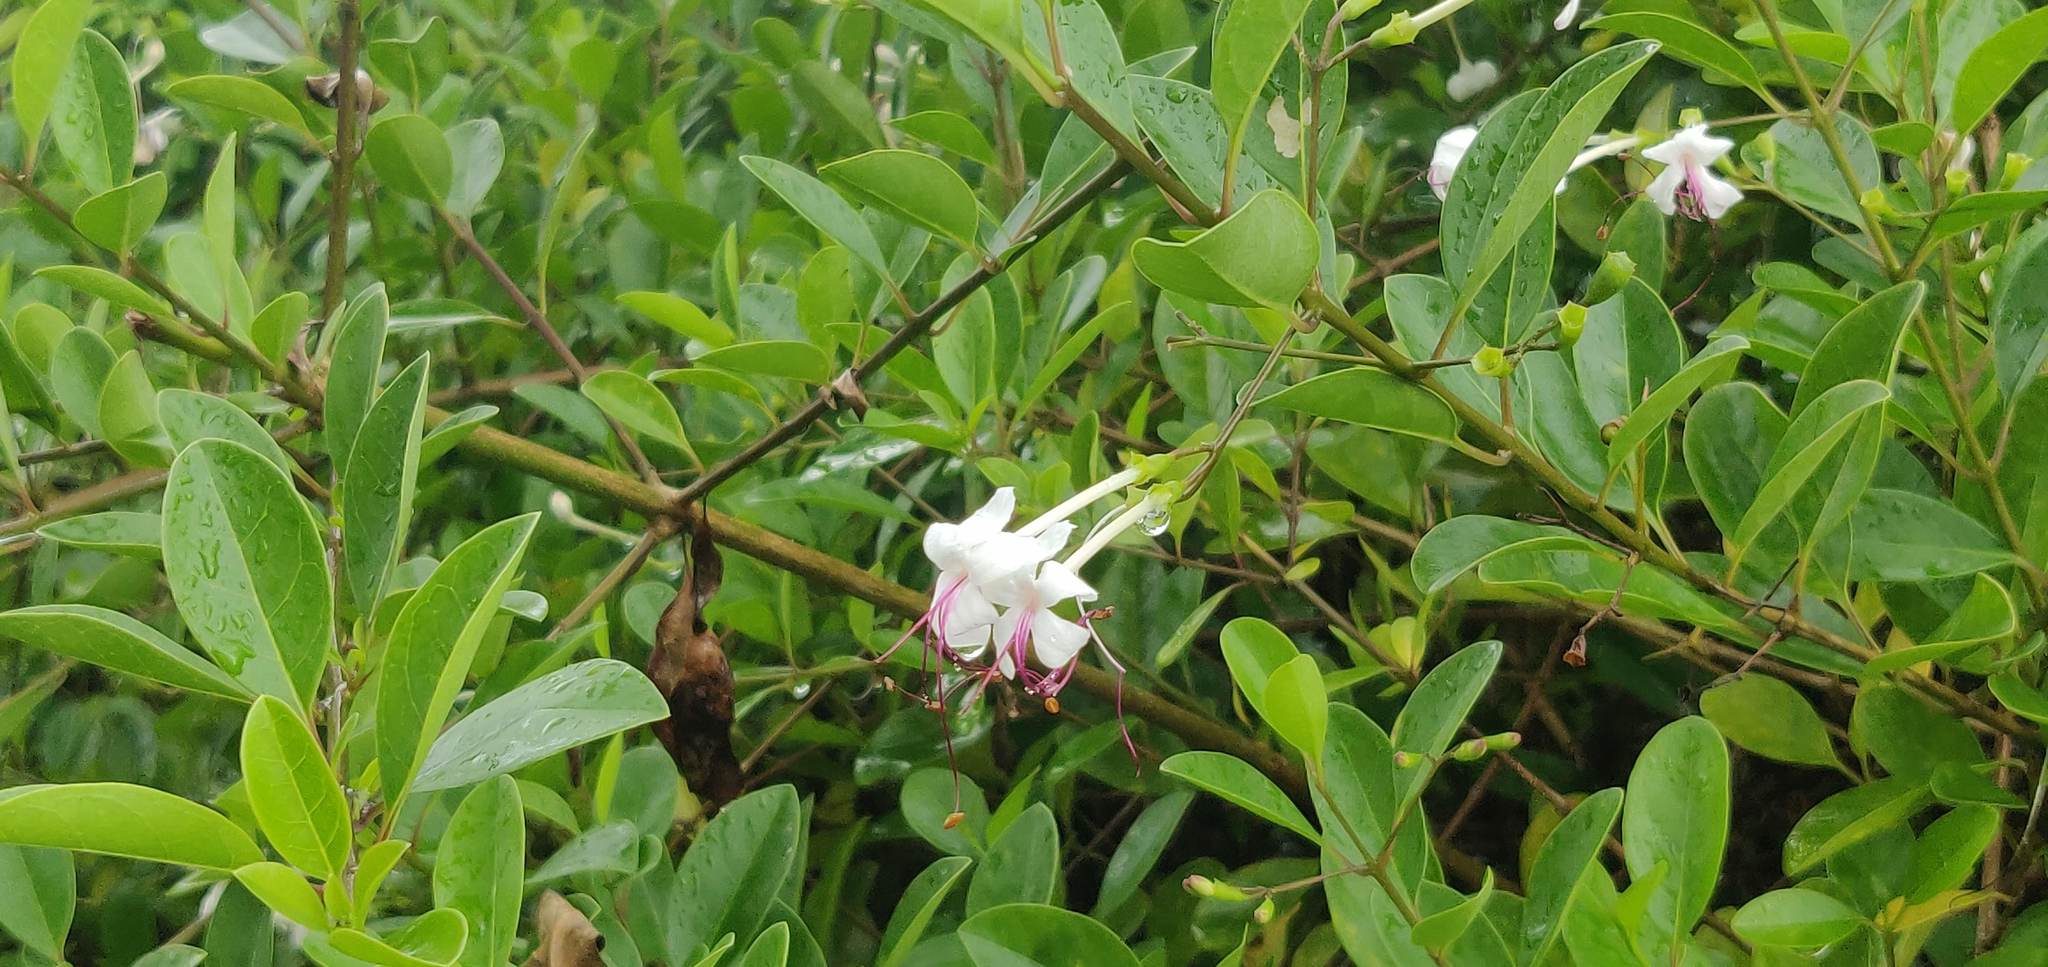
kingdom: Plantae
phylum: Tracheophyta
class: Magnoliopsida
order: Lamiales
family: Lamiaceae
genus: Volkameria
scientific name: Volkameria inermis
